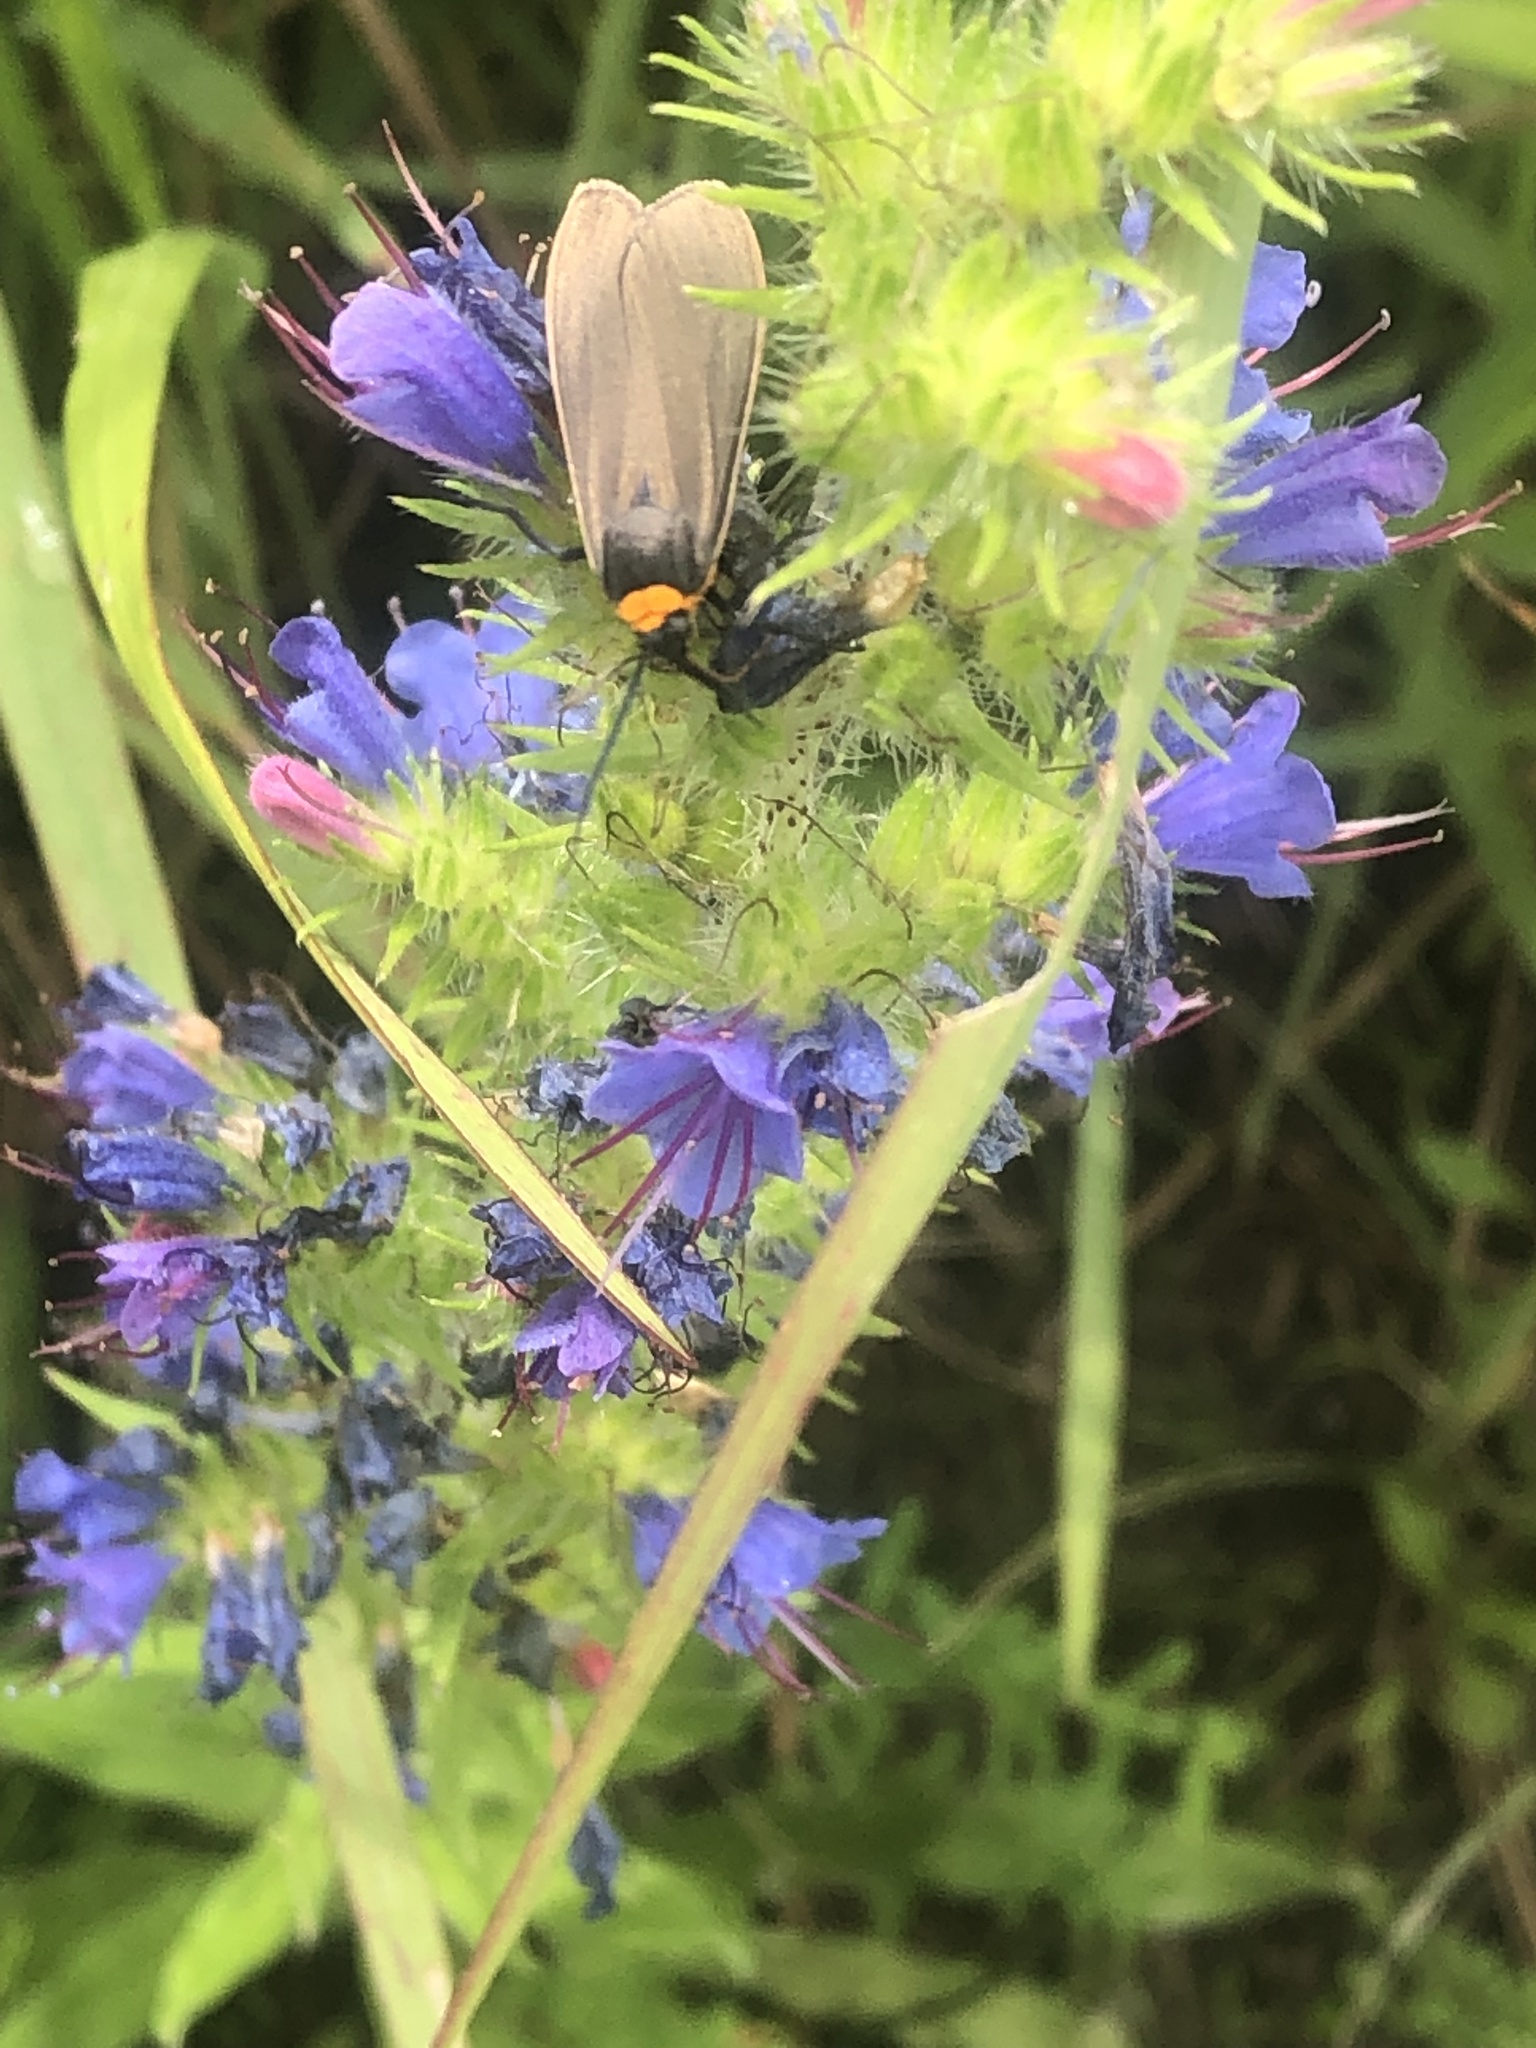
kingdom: Animalia
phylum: Arthropoda
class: Insecta
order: Lepidoptera
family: Erebidae
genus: Cisseps
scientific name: Cisseps fulvicollis
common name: Yellow-collared scape moth
